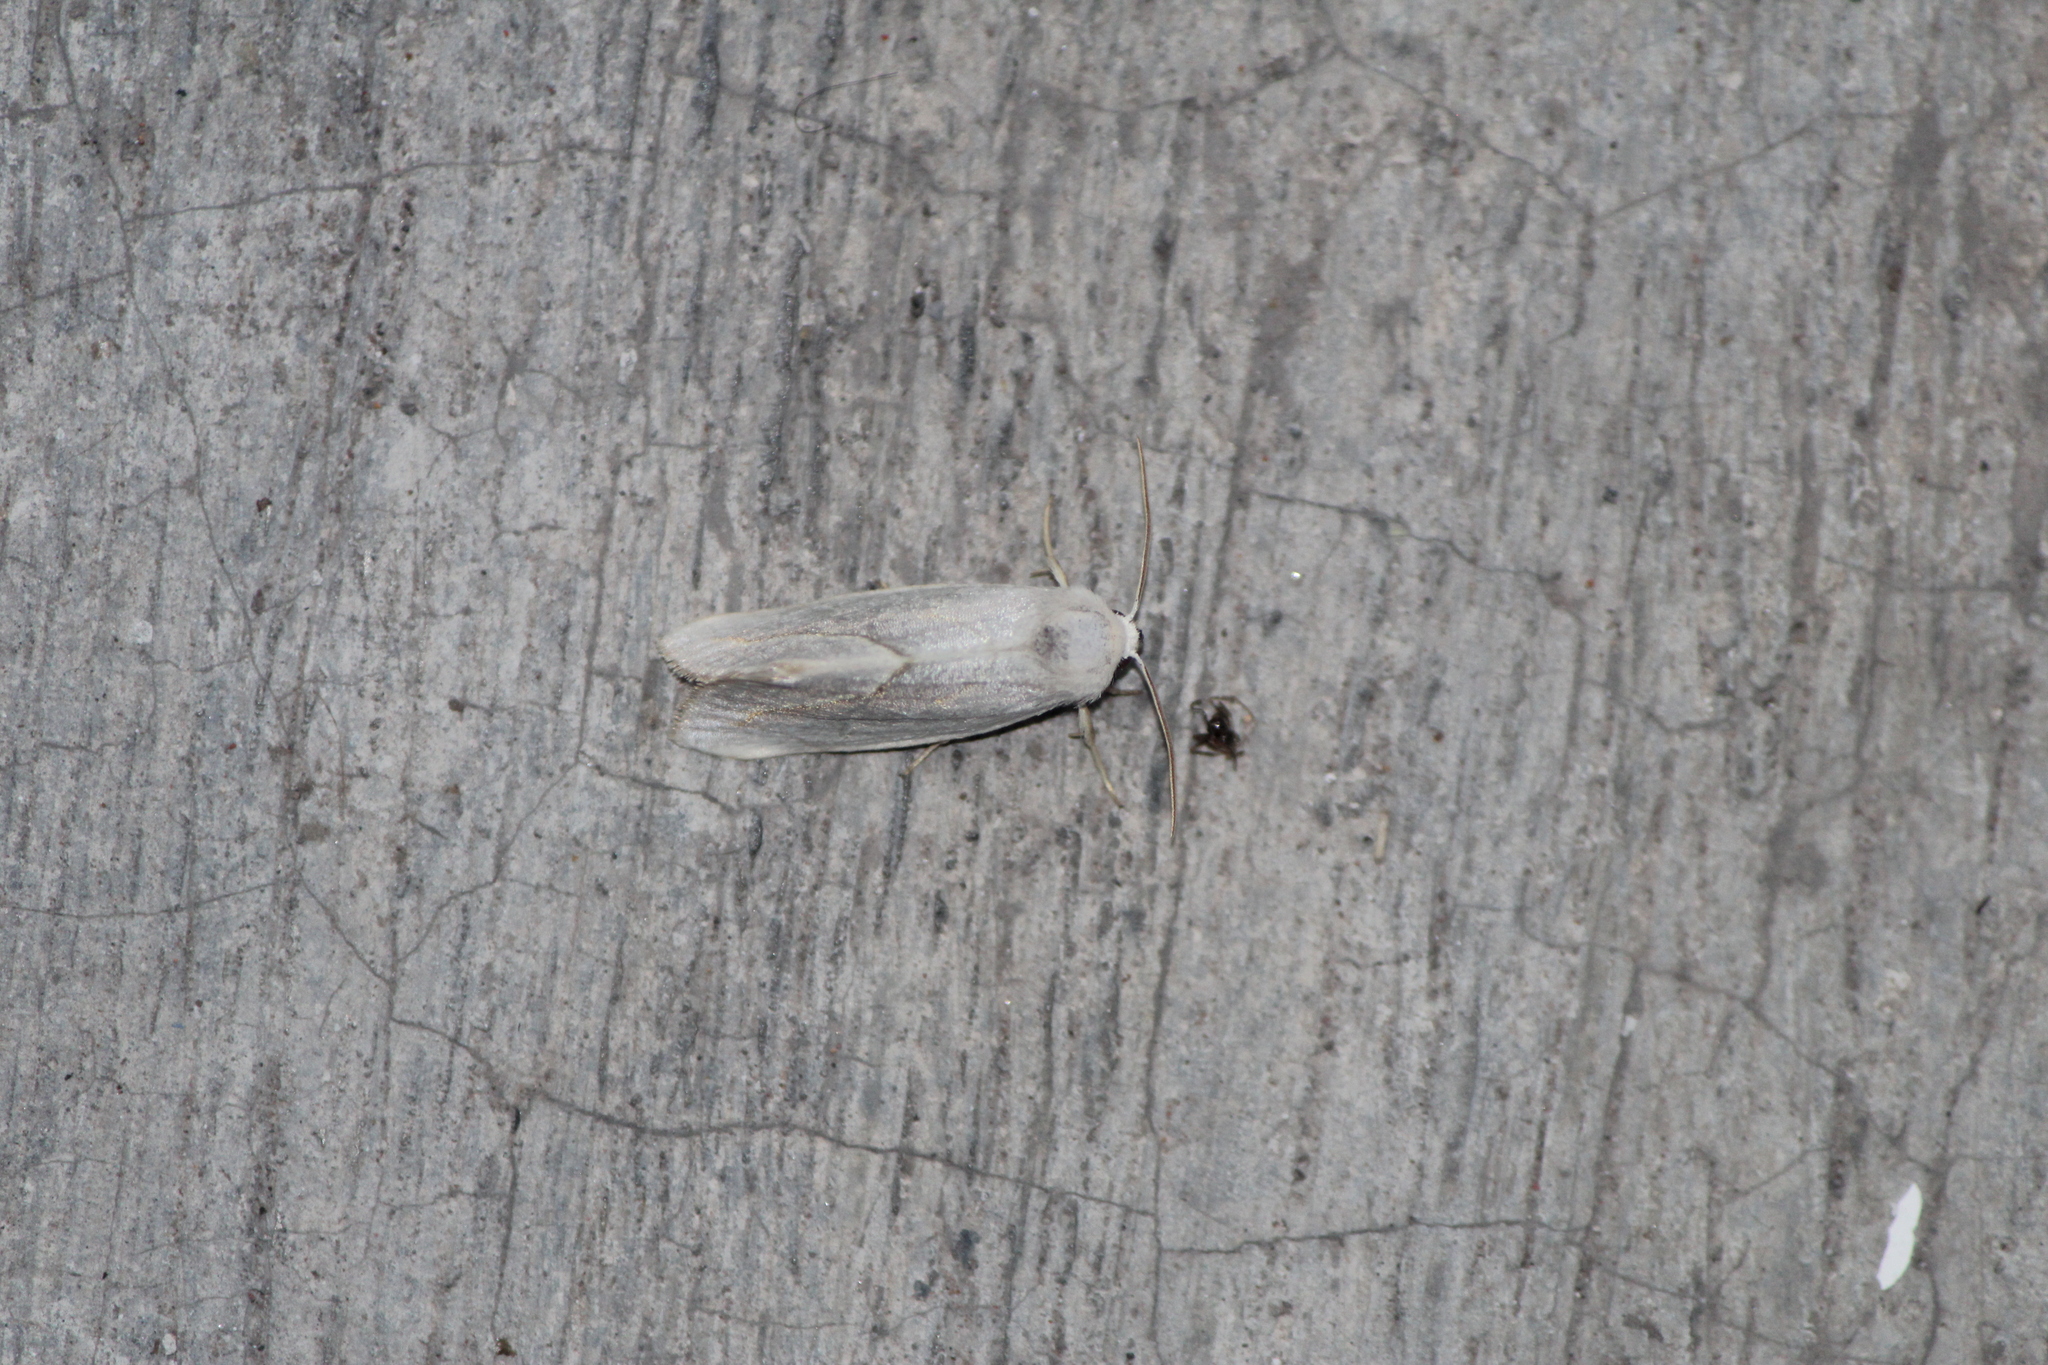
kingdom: Animalia
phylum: Arthropoda
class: Insecta
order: Lepidoptera
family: Noctuidae
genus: Plagiomimicus
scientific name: Plagiomimicus
